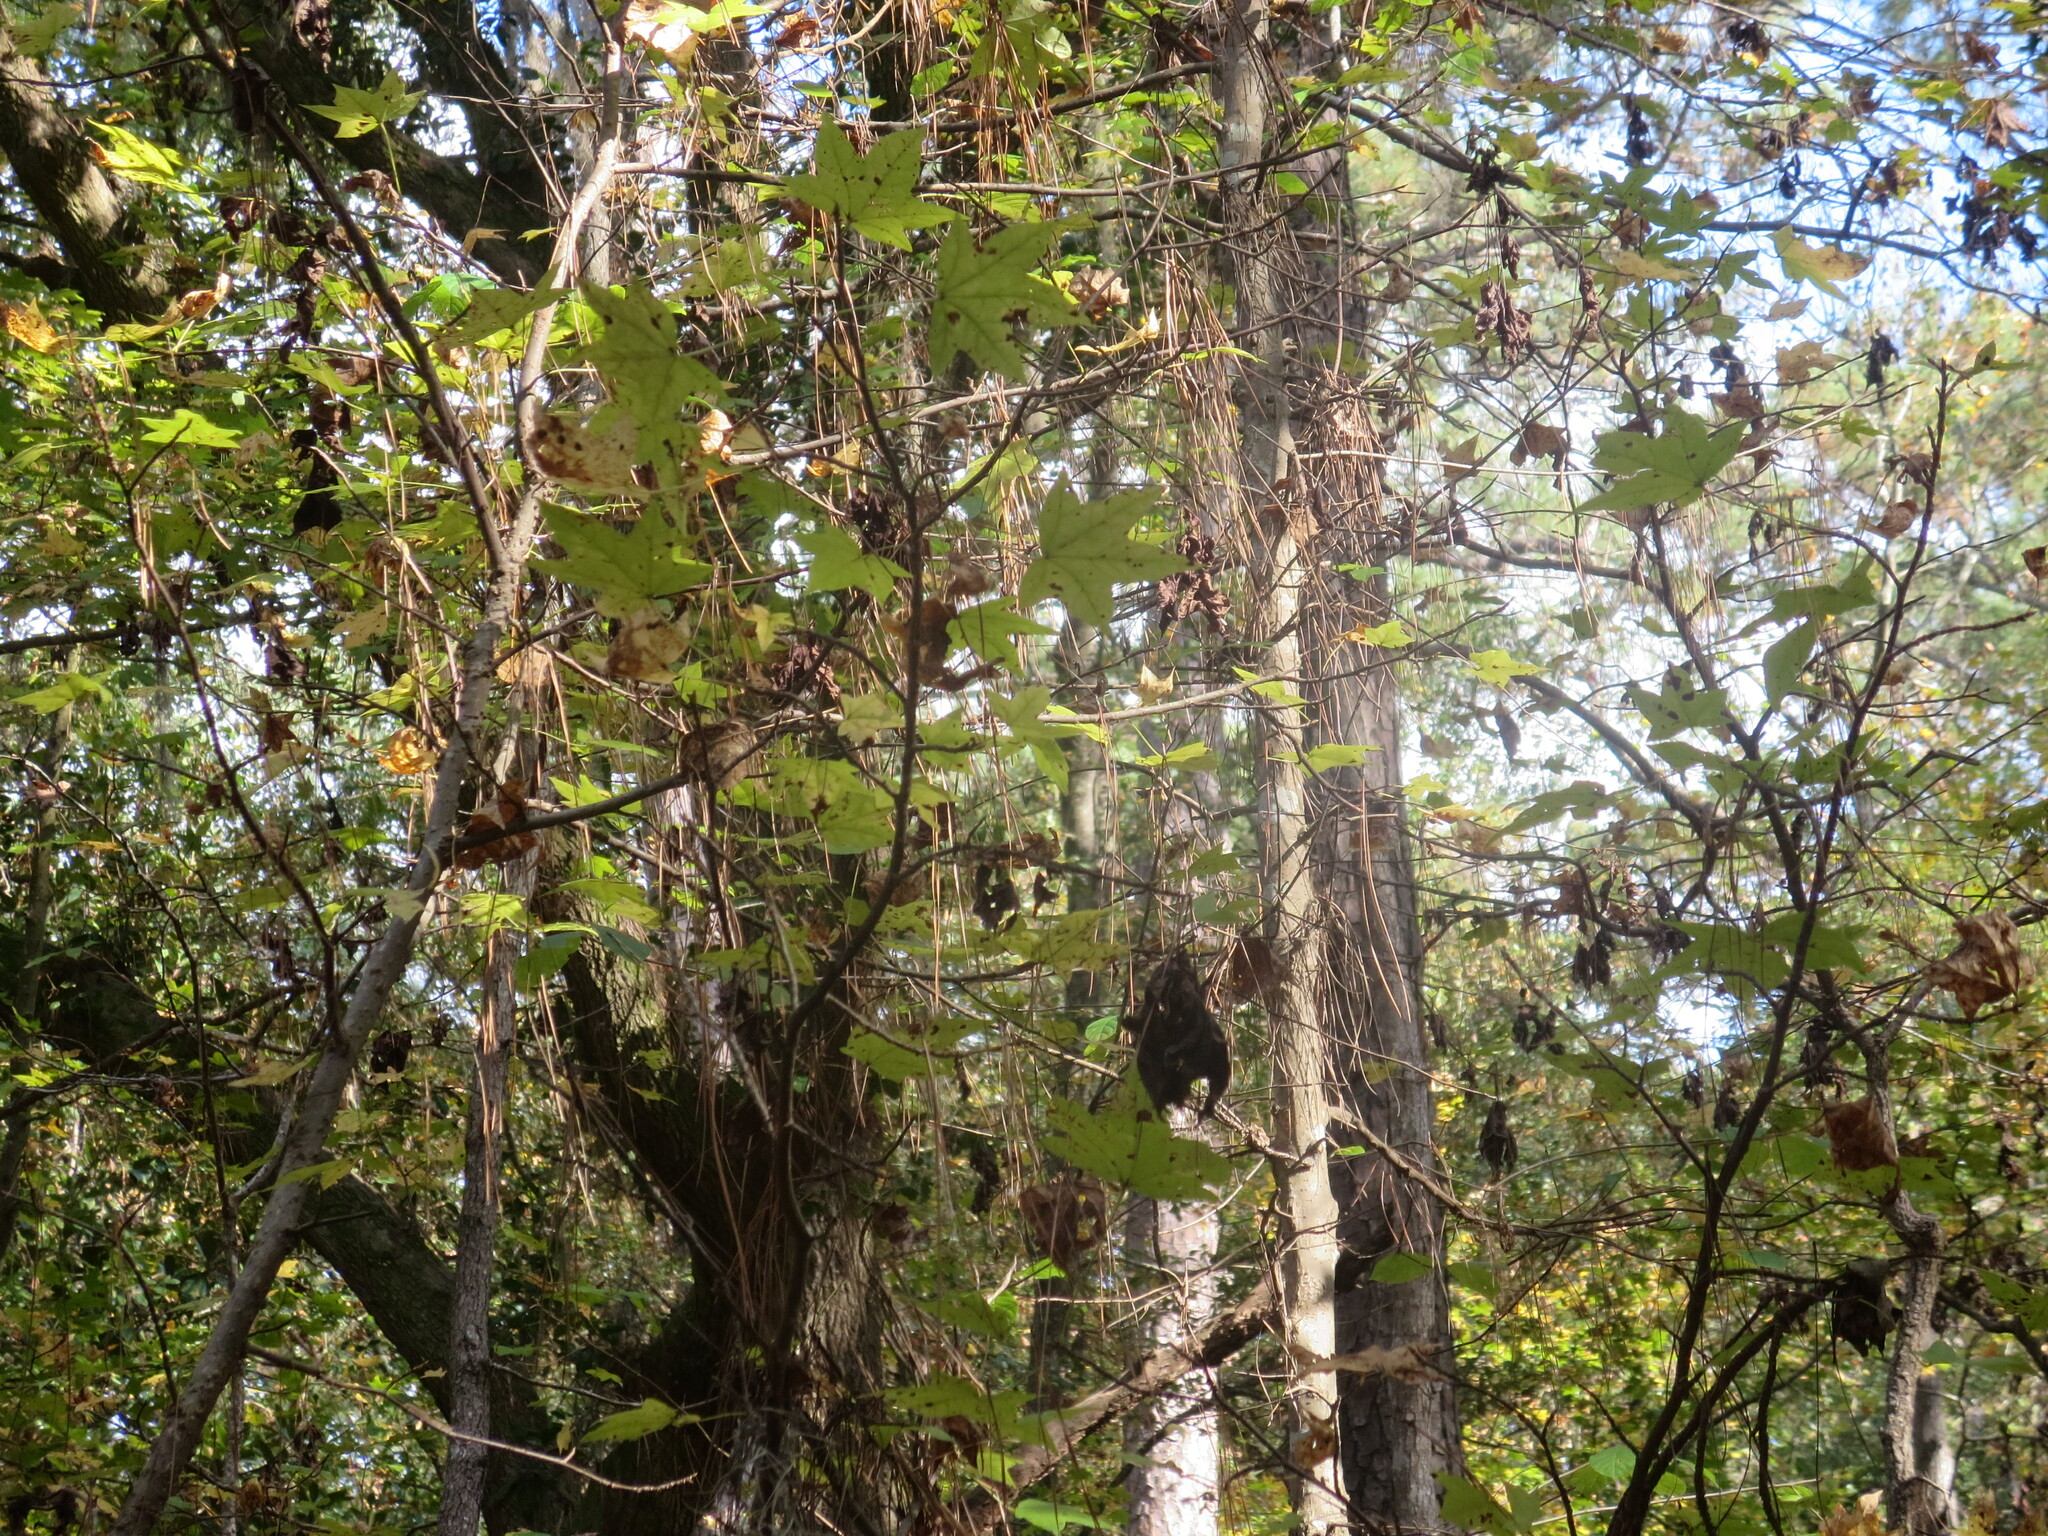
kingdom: Plantae
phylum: Tracheophyta
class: Magnoliopsida
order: Saxifragales
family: Altingiaceae
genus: Liquidambar
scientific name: Liquidambar styraciflua
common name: Sweet gum
